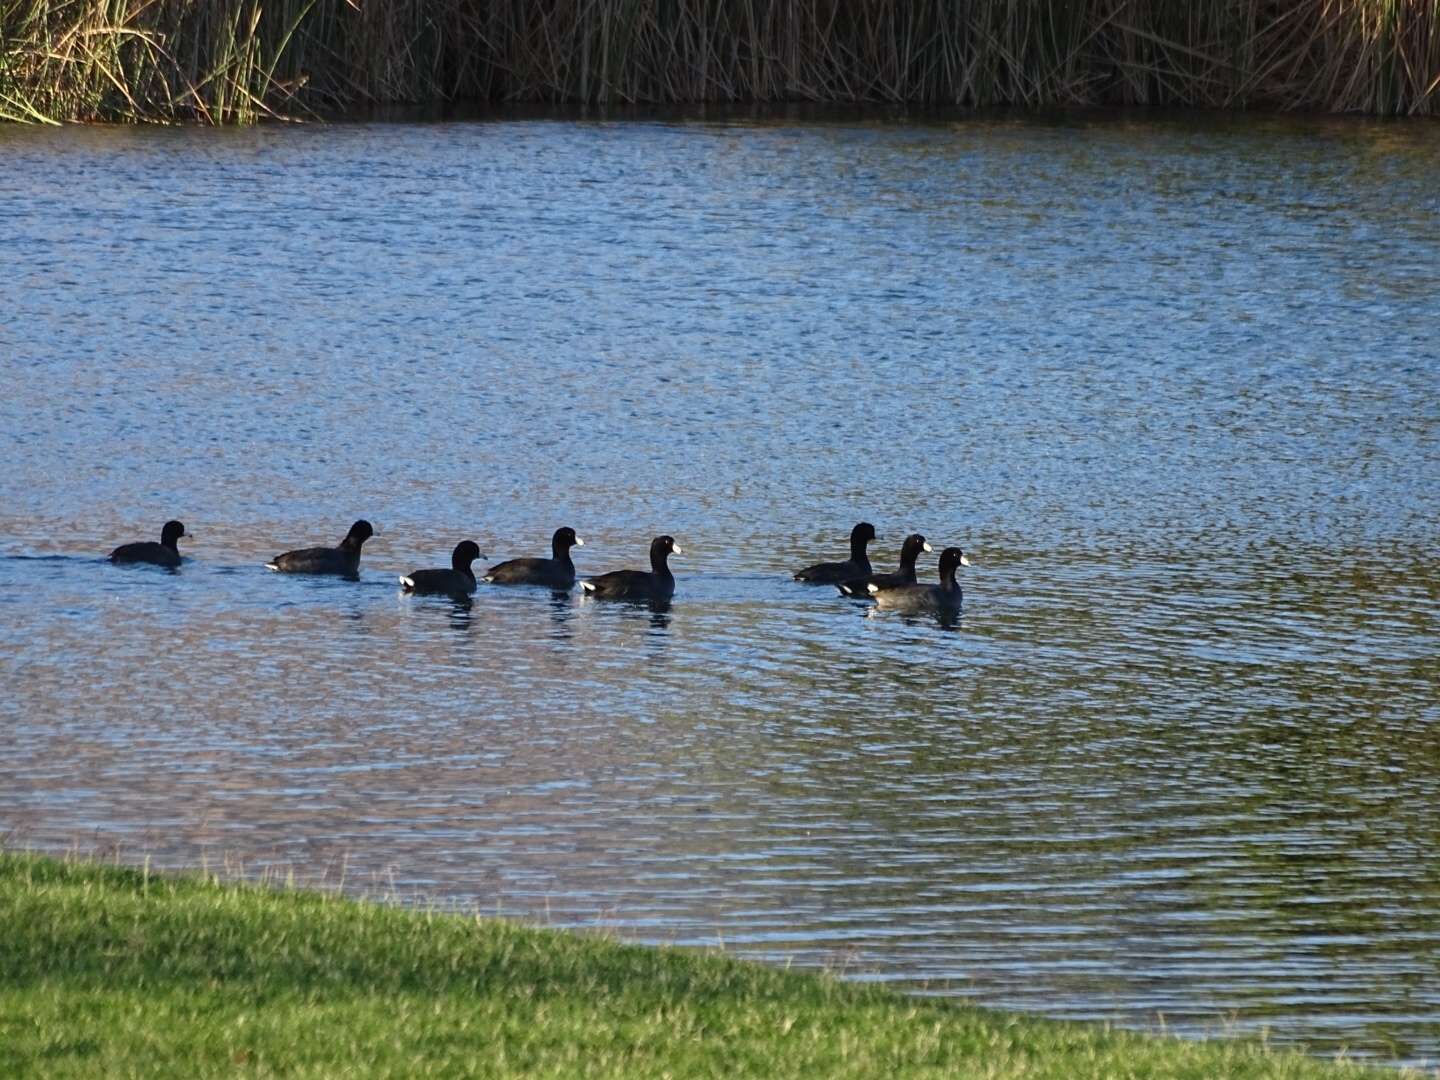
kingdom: Animalia
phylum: Chordata
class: Aves
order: Gruiformes
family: Rallidae
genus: Fulica
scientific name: Fulica americana
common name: American coot
